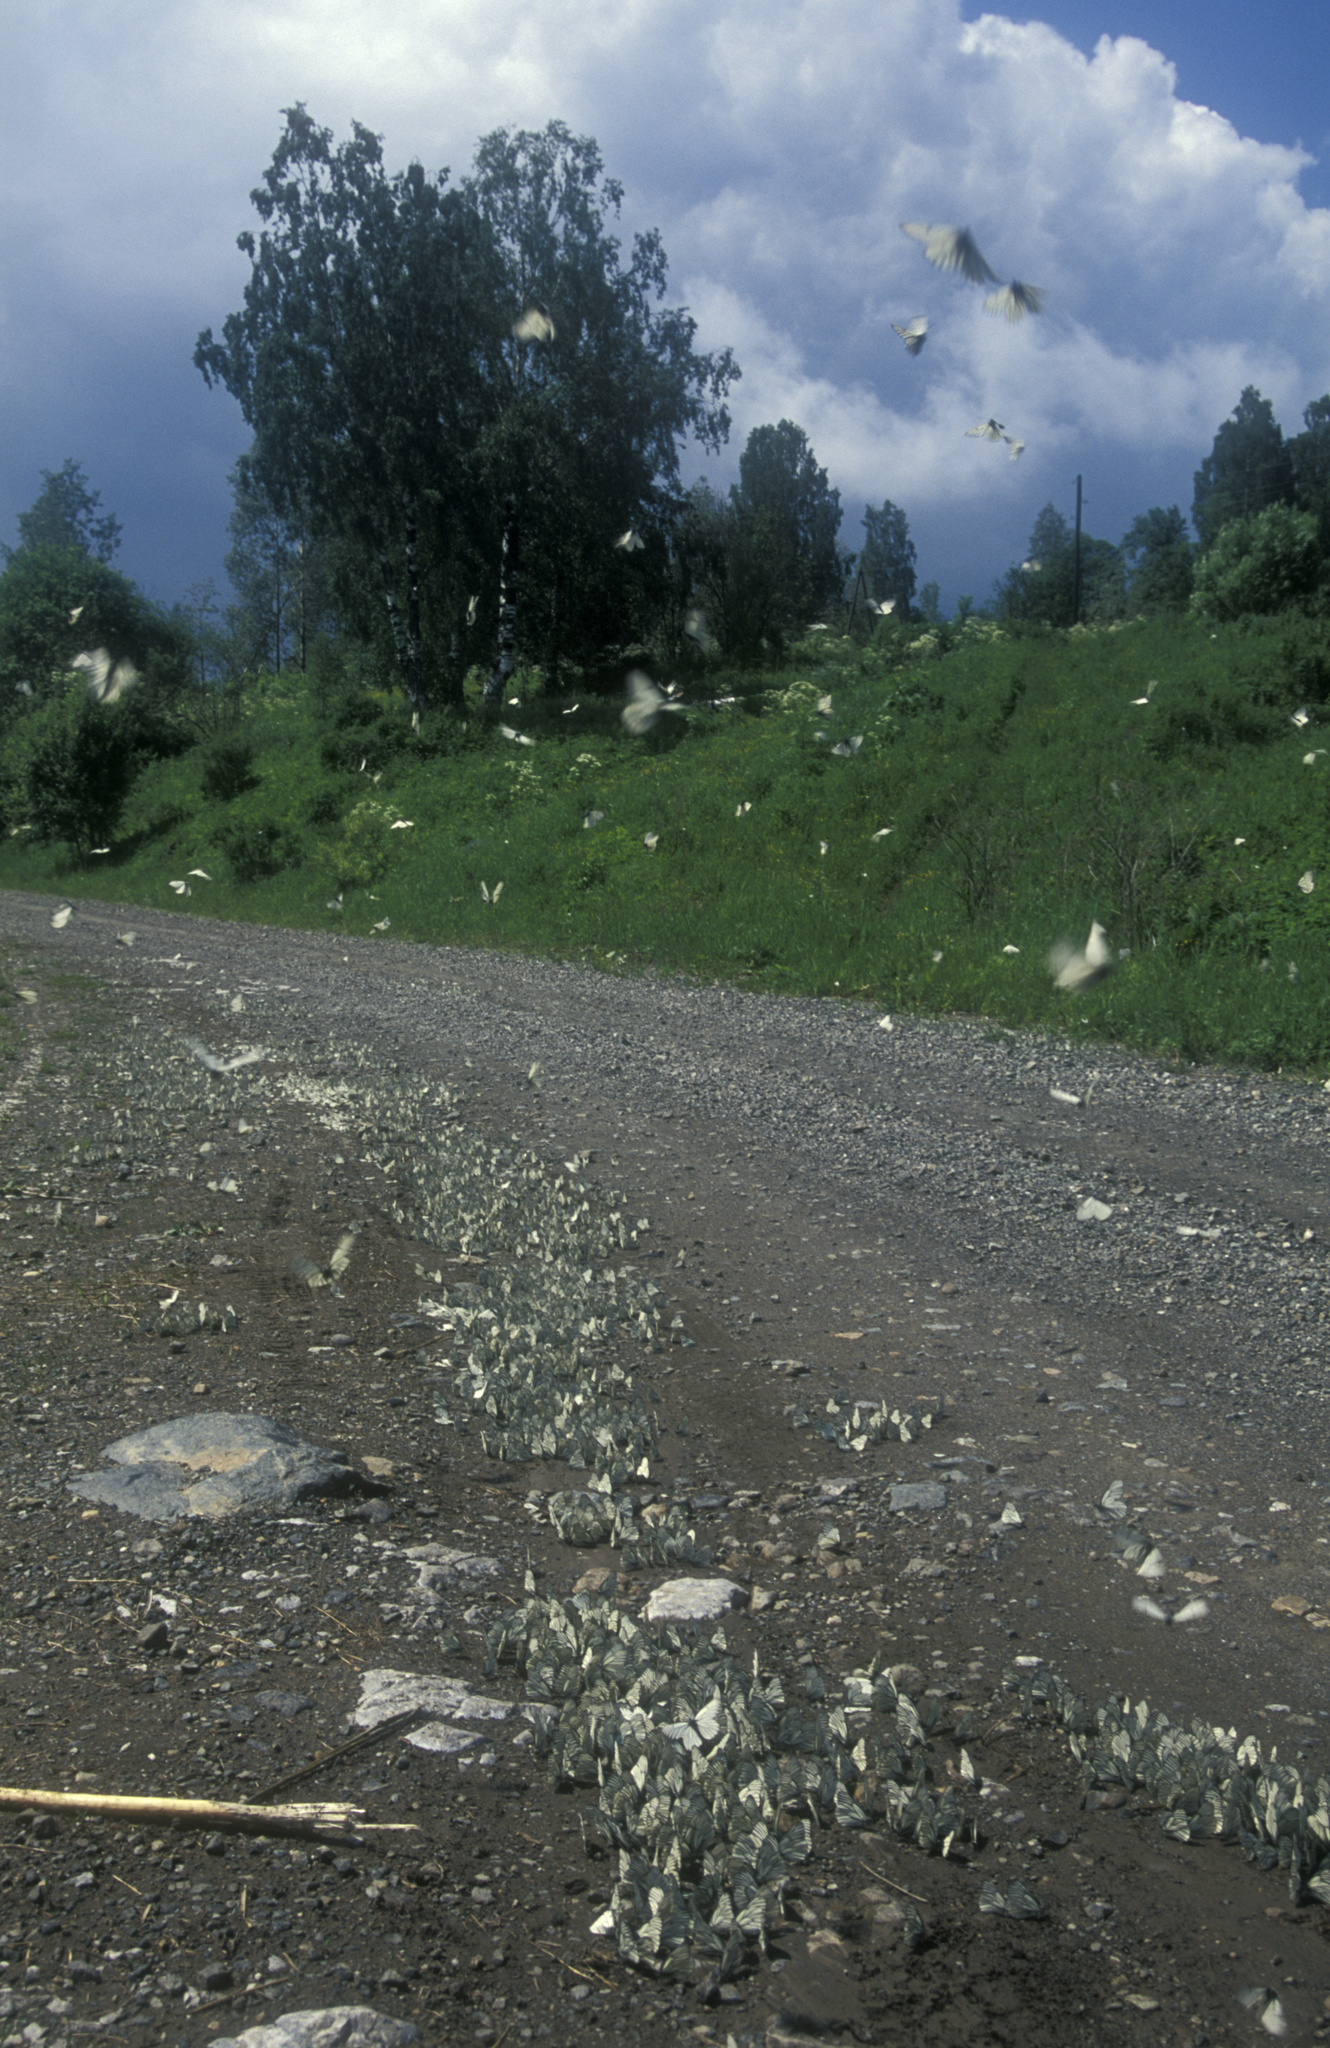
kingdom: Animalia
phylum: Arthropoda
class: Insecta
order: Lepidoptera
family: Pieridae
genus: Aporia
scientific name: Aporia crataegi
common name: Black-veined white
